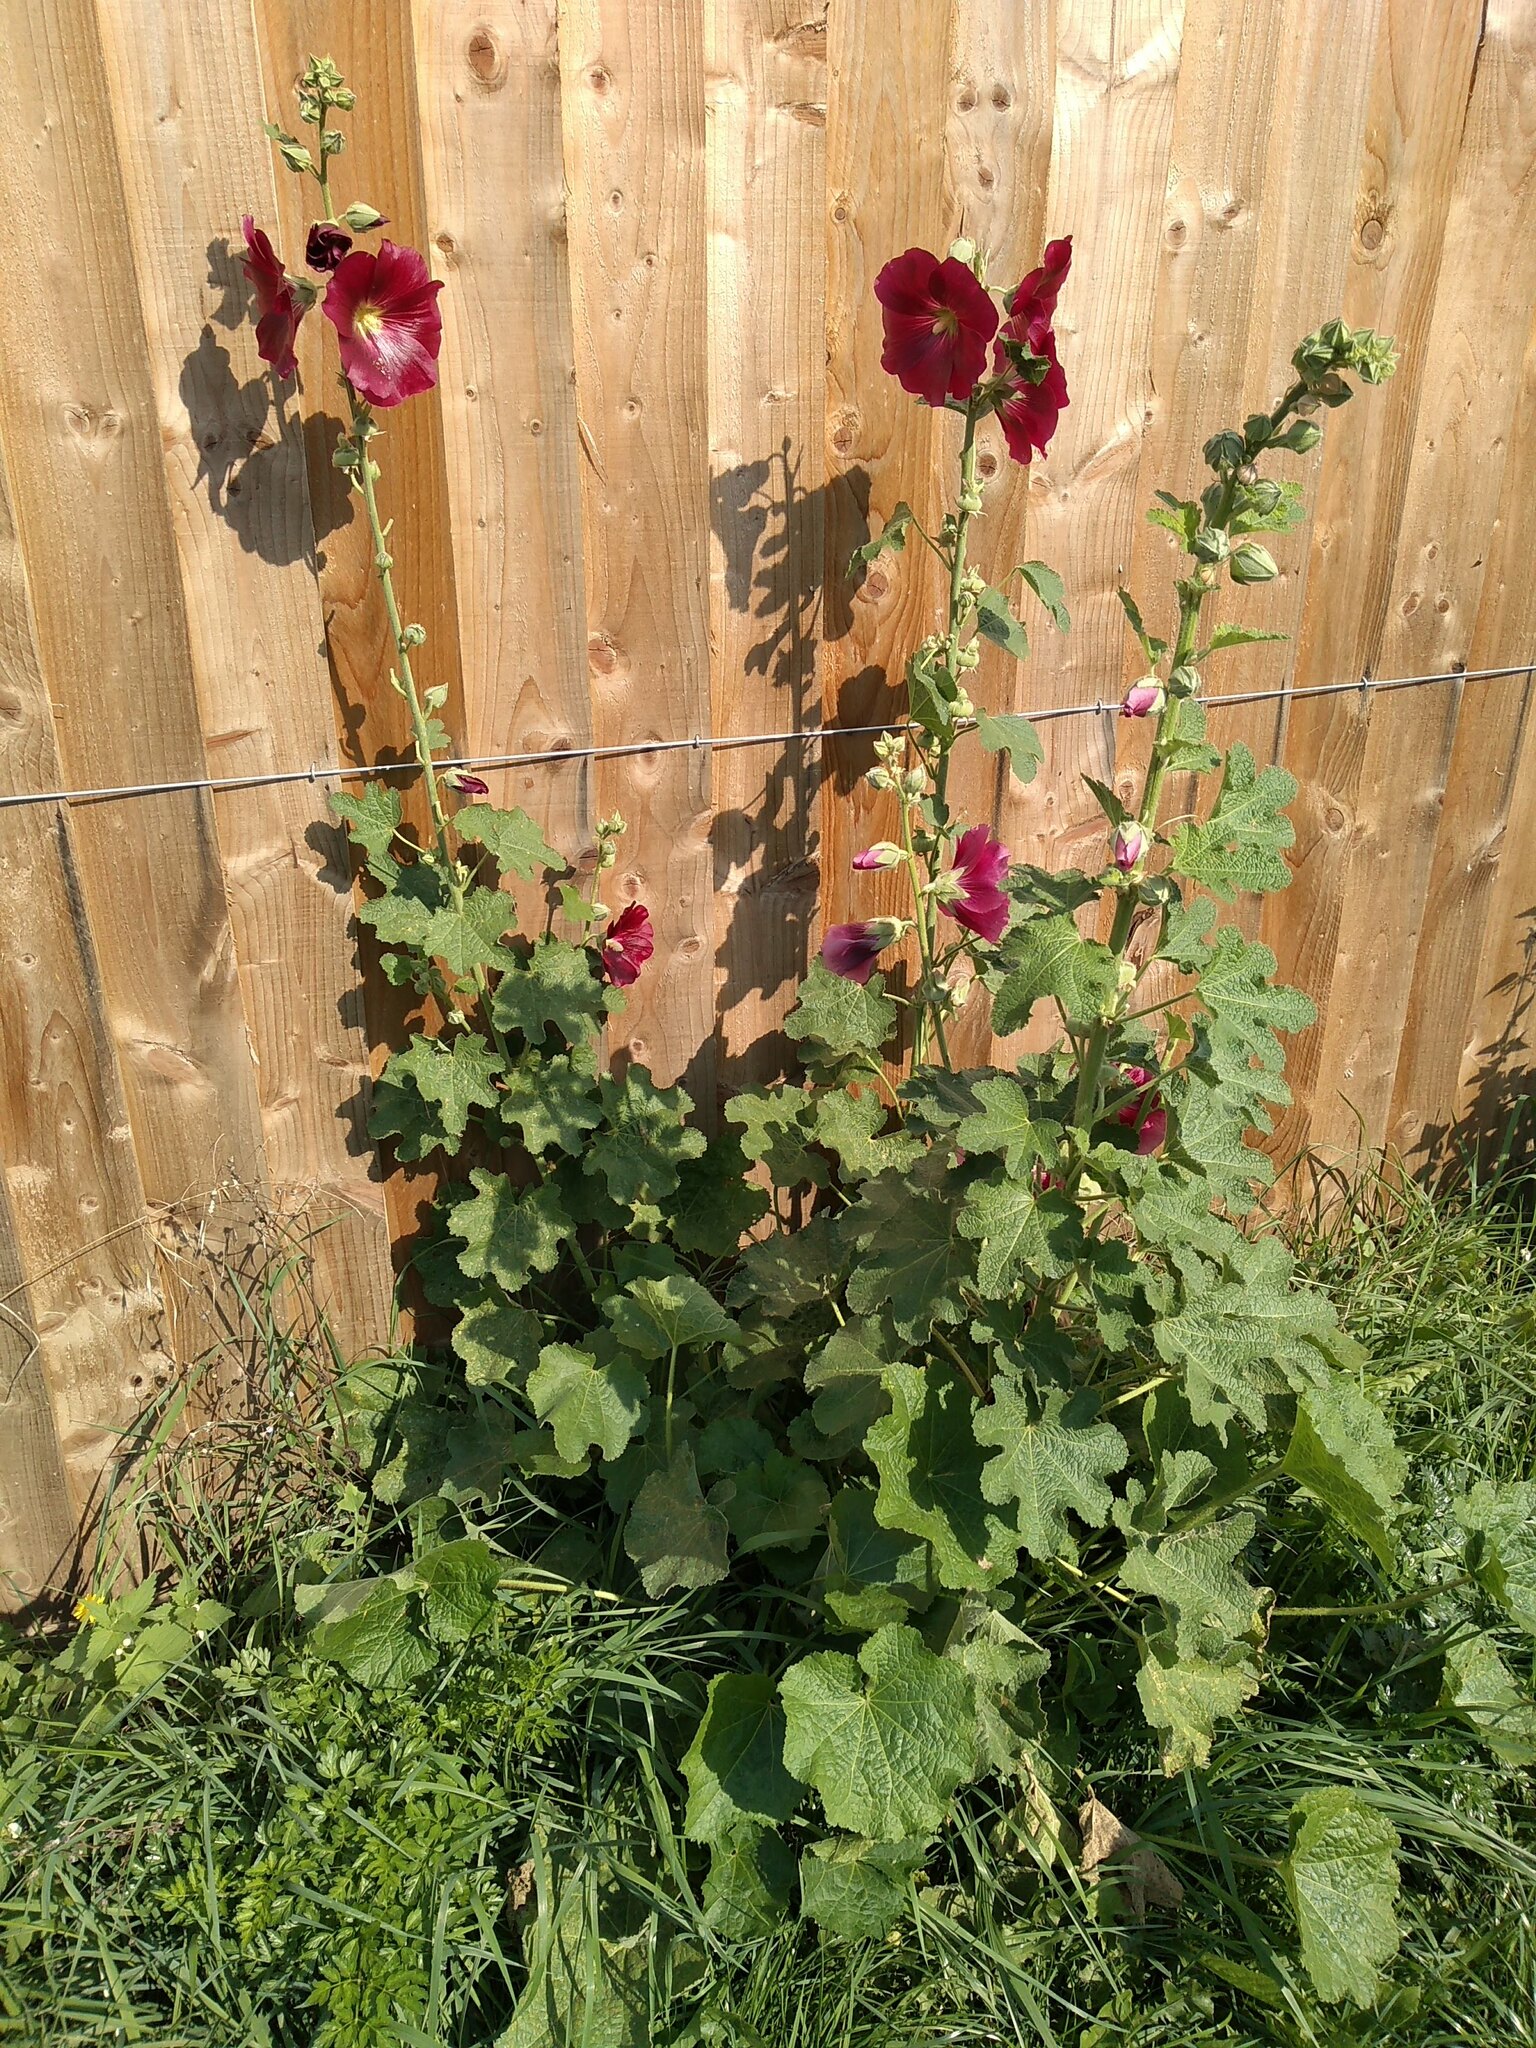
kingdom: Plantae
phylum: Tracheophyta
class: Magnoliopsida
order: Malvales
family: Malvaceae
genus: Alcea
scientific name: Alcea rosea
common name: Hollyhock
